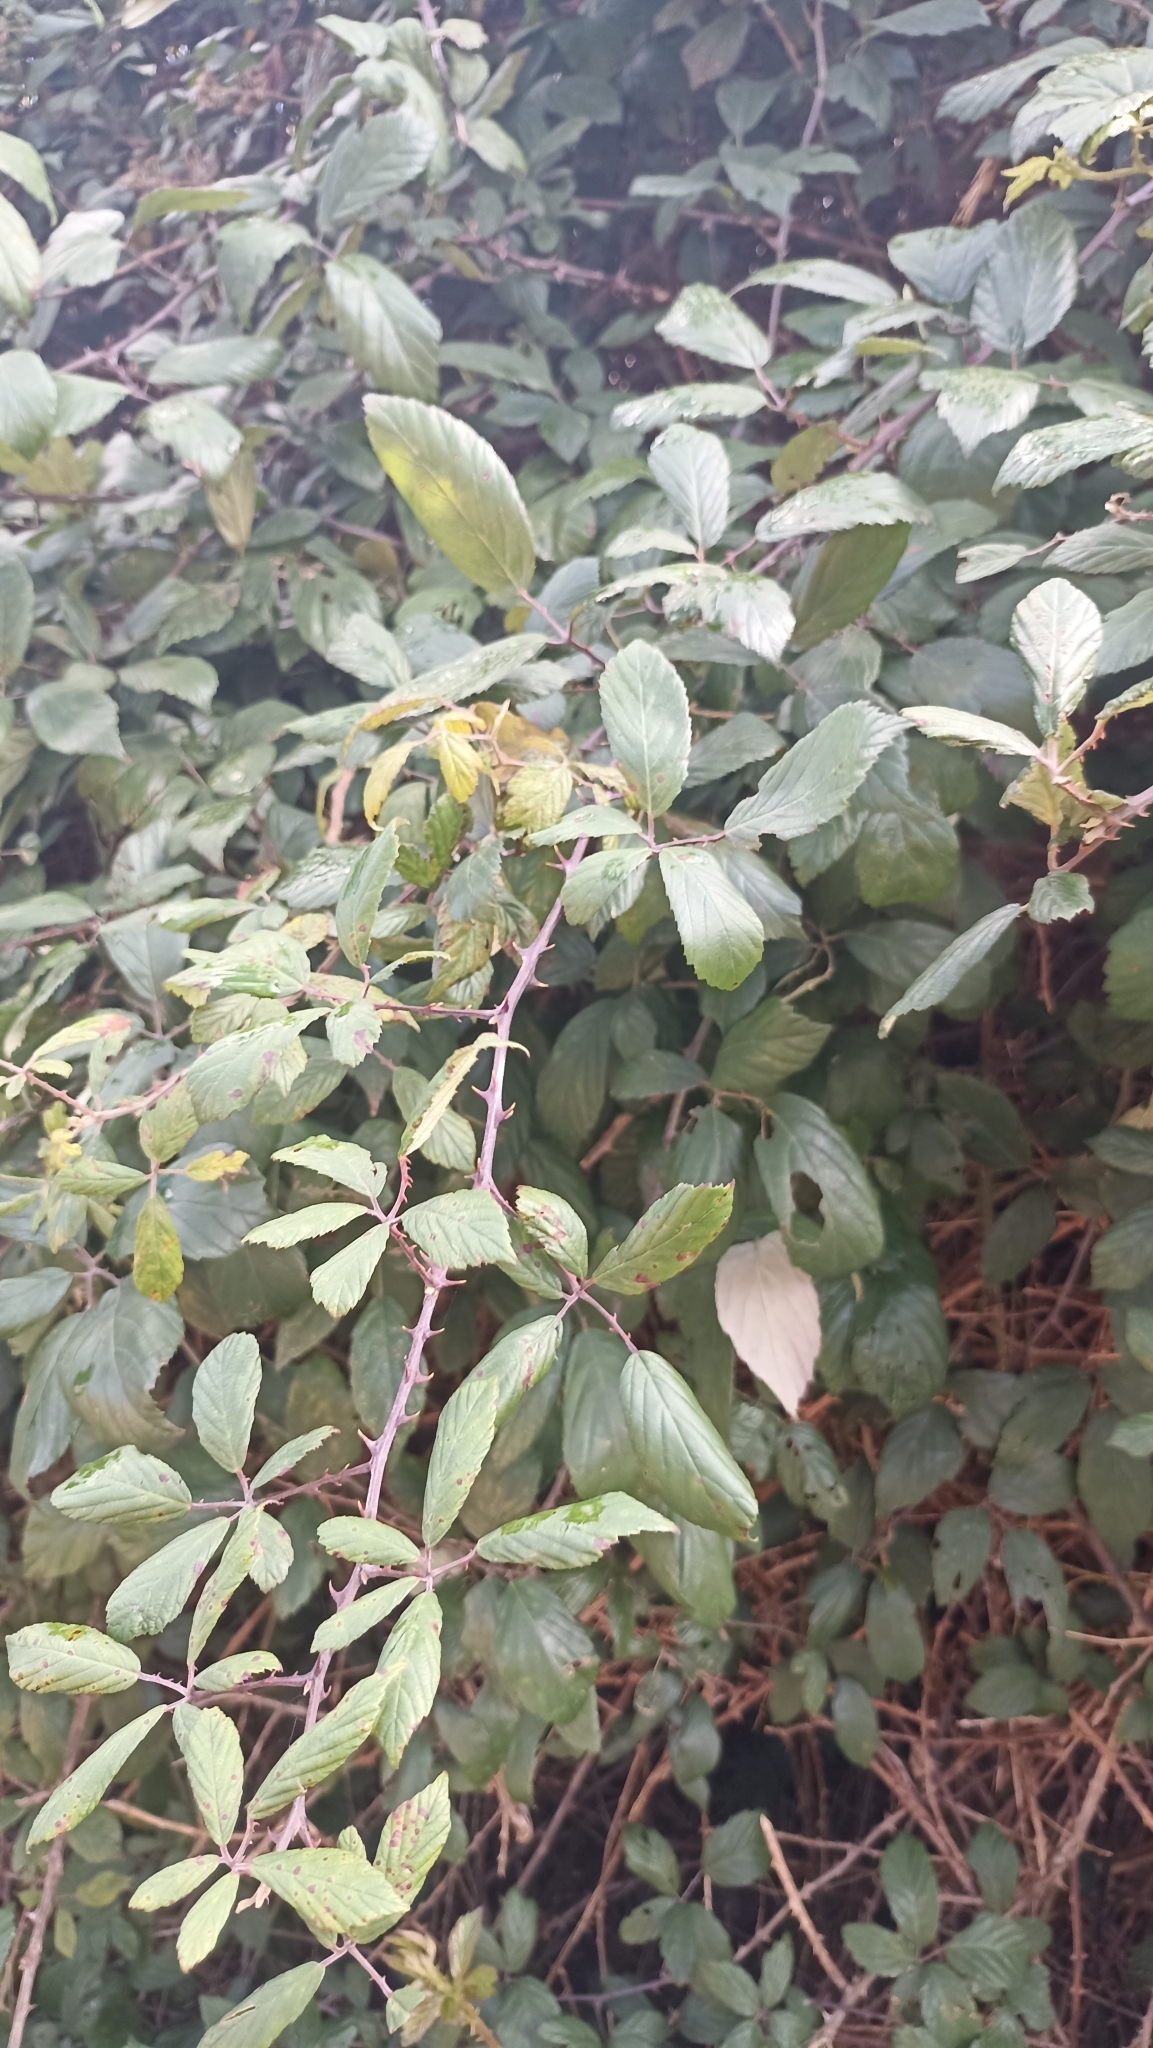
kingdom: Plantae
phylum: Tracheophyta
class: Magnoliopsida
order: Rosales
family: Rosaceae
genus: Rubus
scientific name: Rubus ulmifolius
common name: Elmleaf blackberry
